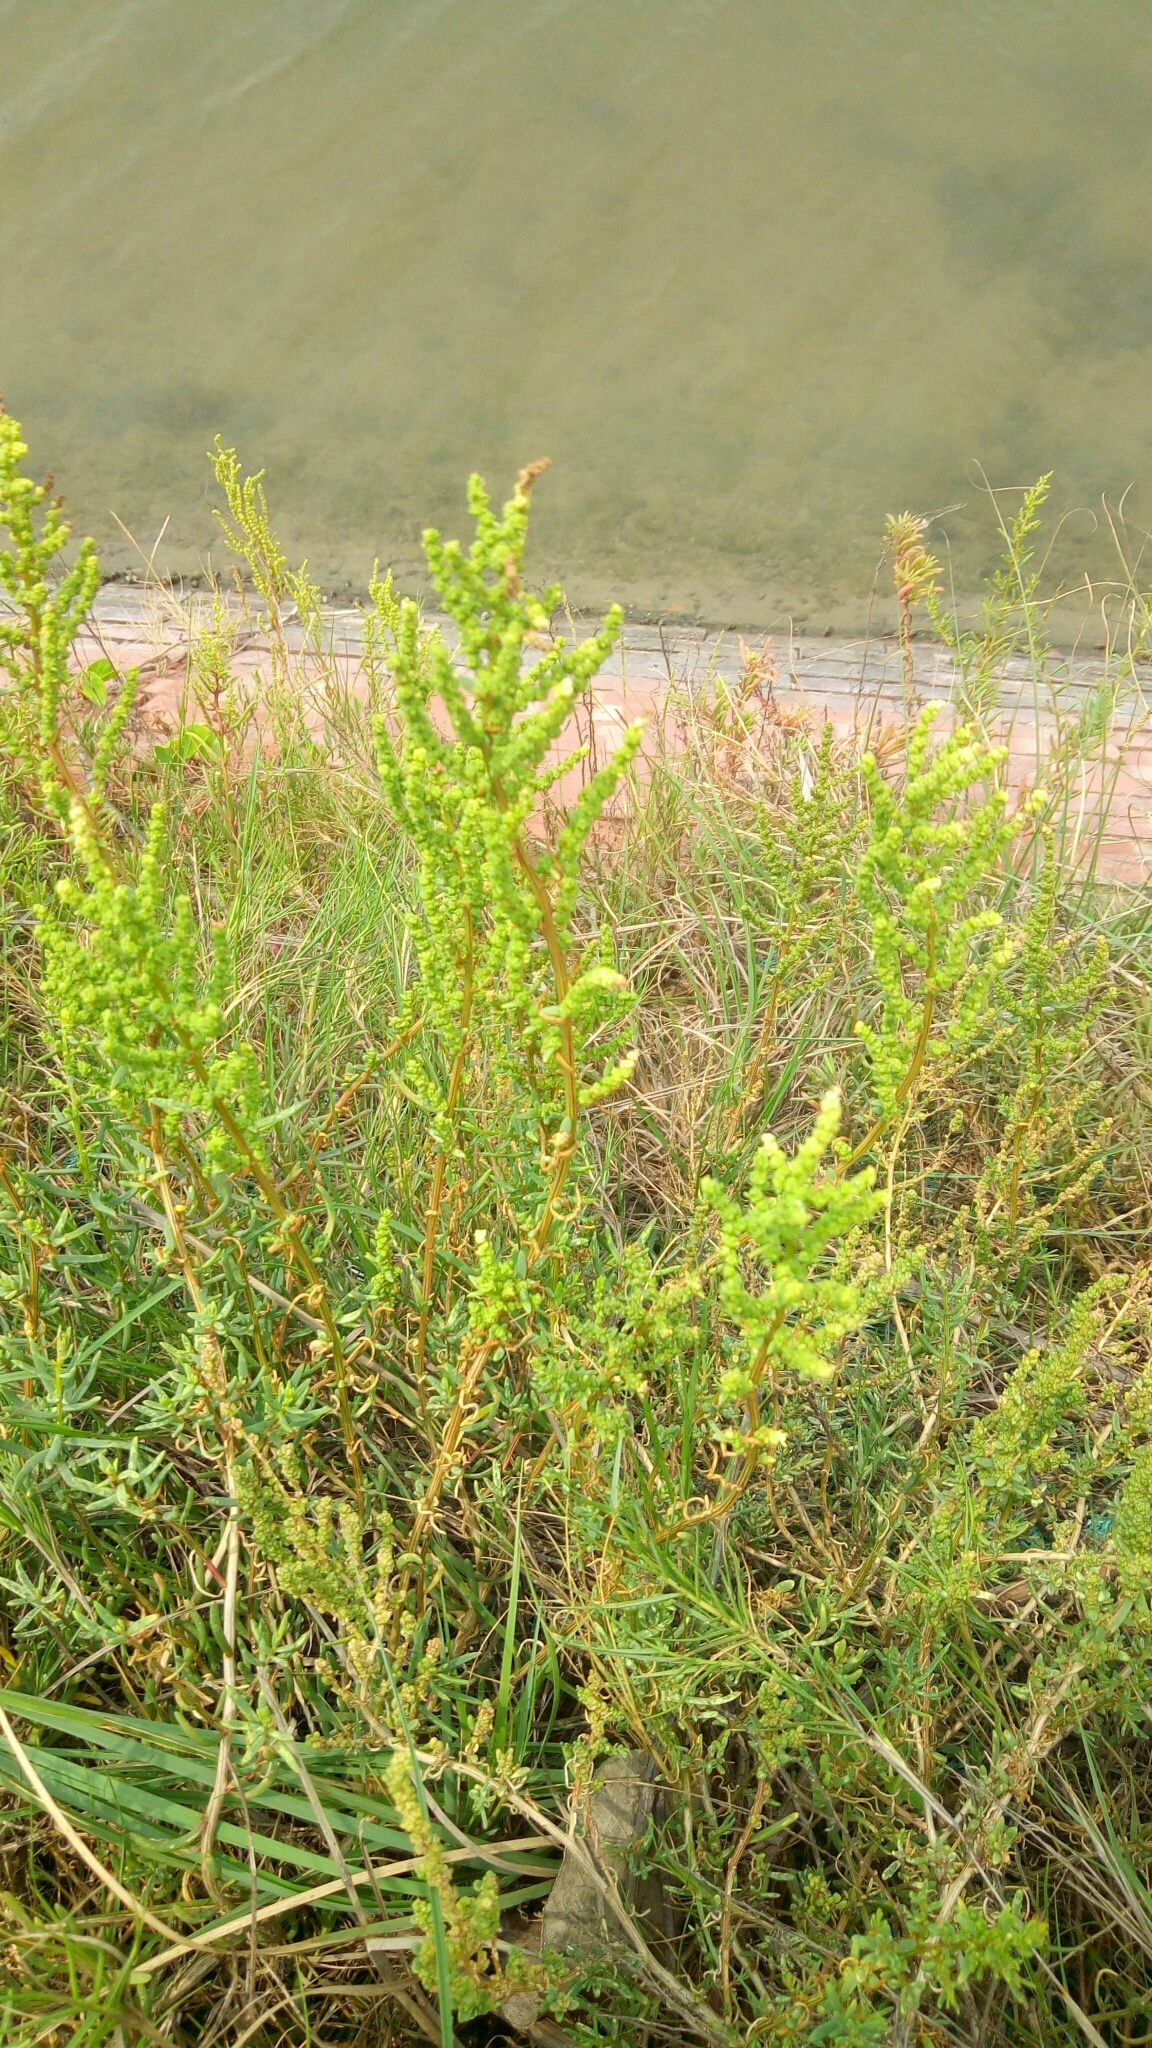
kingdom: Plantae
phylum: Tracheophyta
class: Magnoliopsida
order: Caryophyllales
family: Amaranthaceae
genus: Suaeda
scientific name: Suaeda maritima
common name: Annual sea-blite
